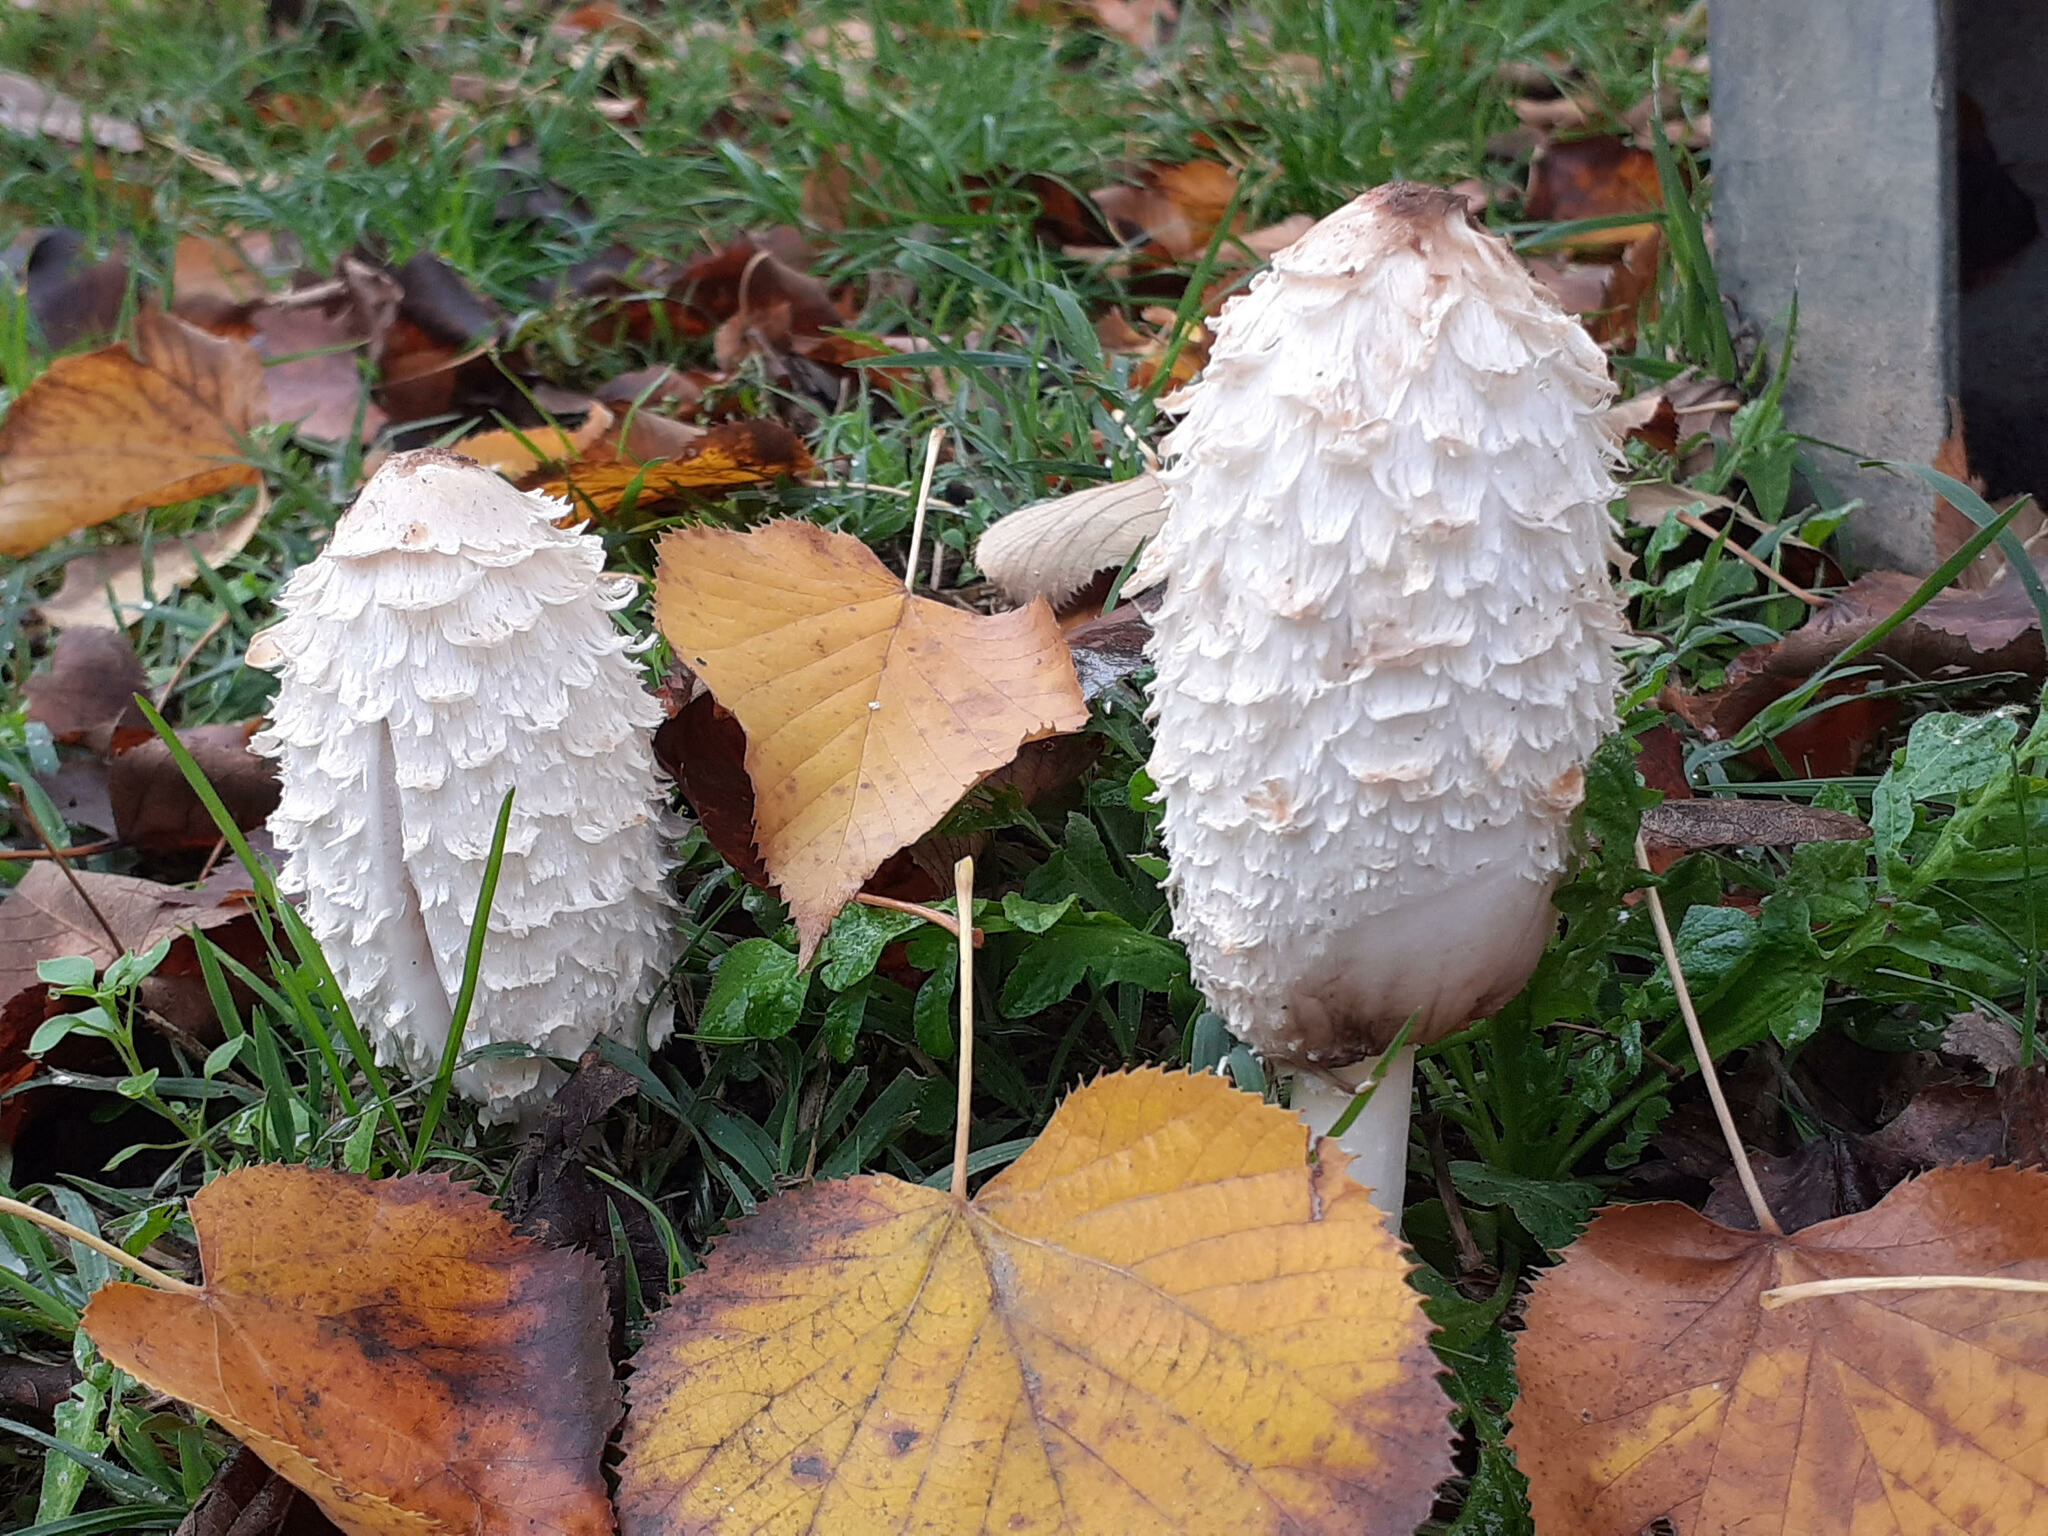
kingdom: Fungi
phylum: Basidiomycota
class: Agaricomycetes
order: Agaricales
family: Agaricaceae
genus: Coprinus
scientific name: Coprinus comatus
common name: Lawyer's wig
